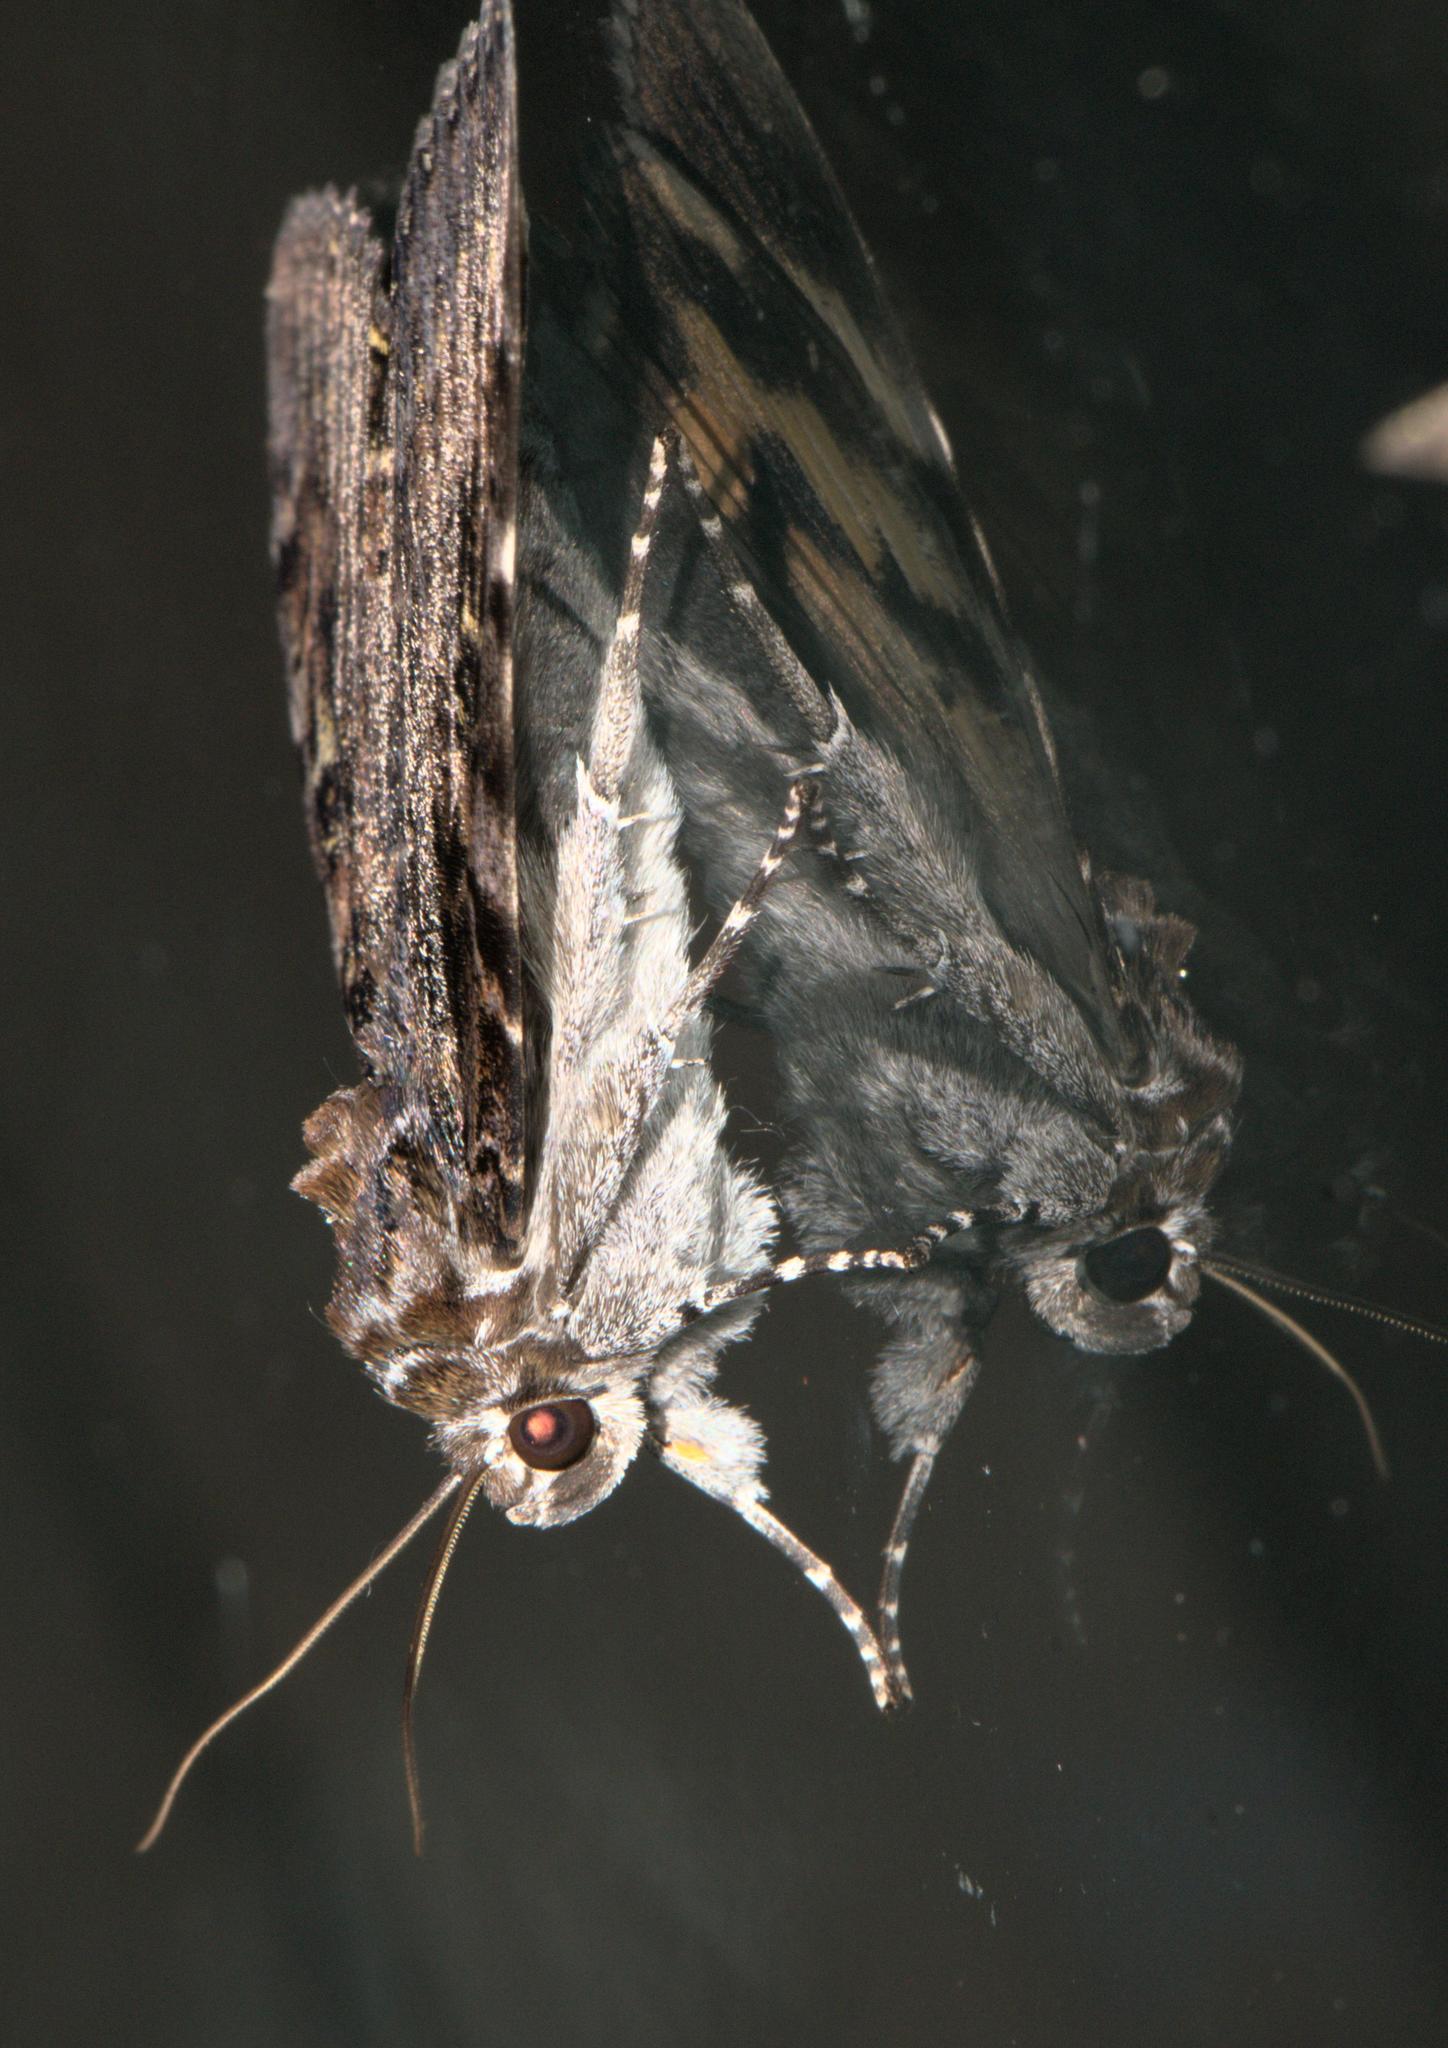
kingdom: Animalia
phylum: Arthropoda
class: Insecta
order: Lepidoptera
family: Erebidae
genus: Catocala
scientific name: Catocala tapestrina
